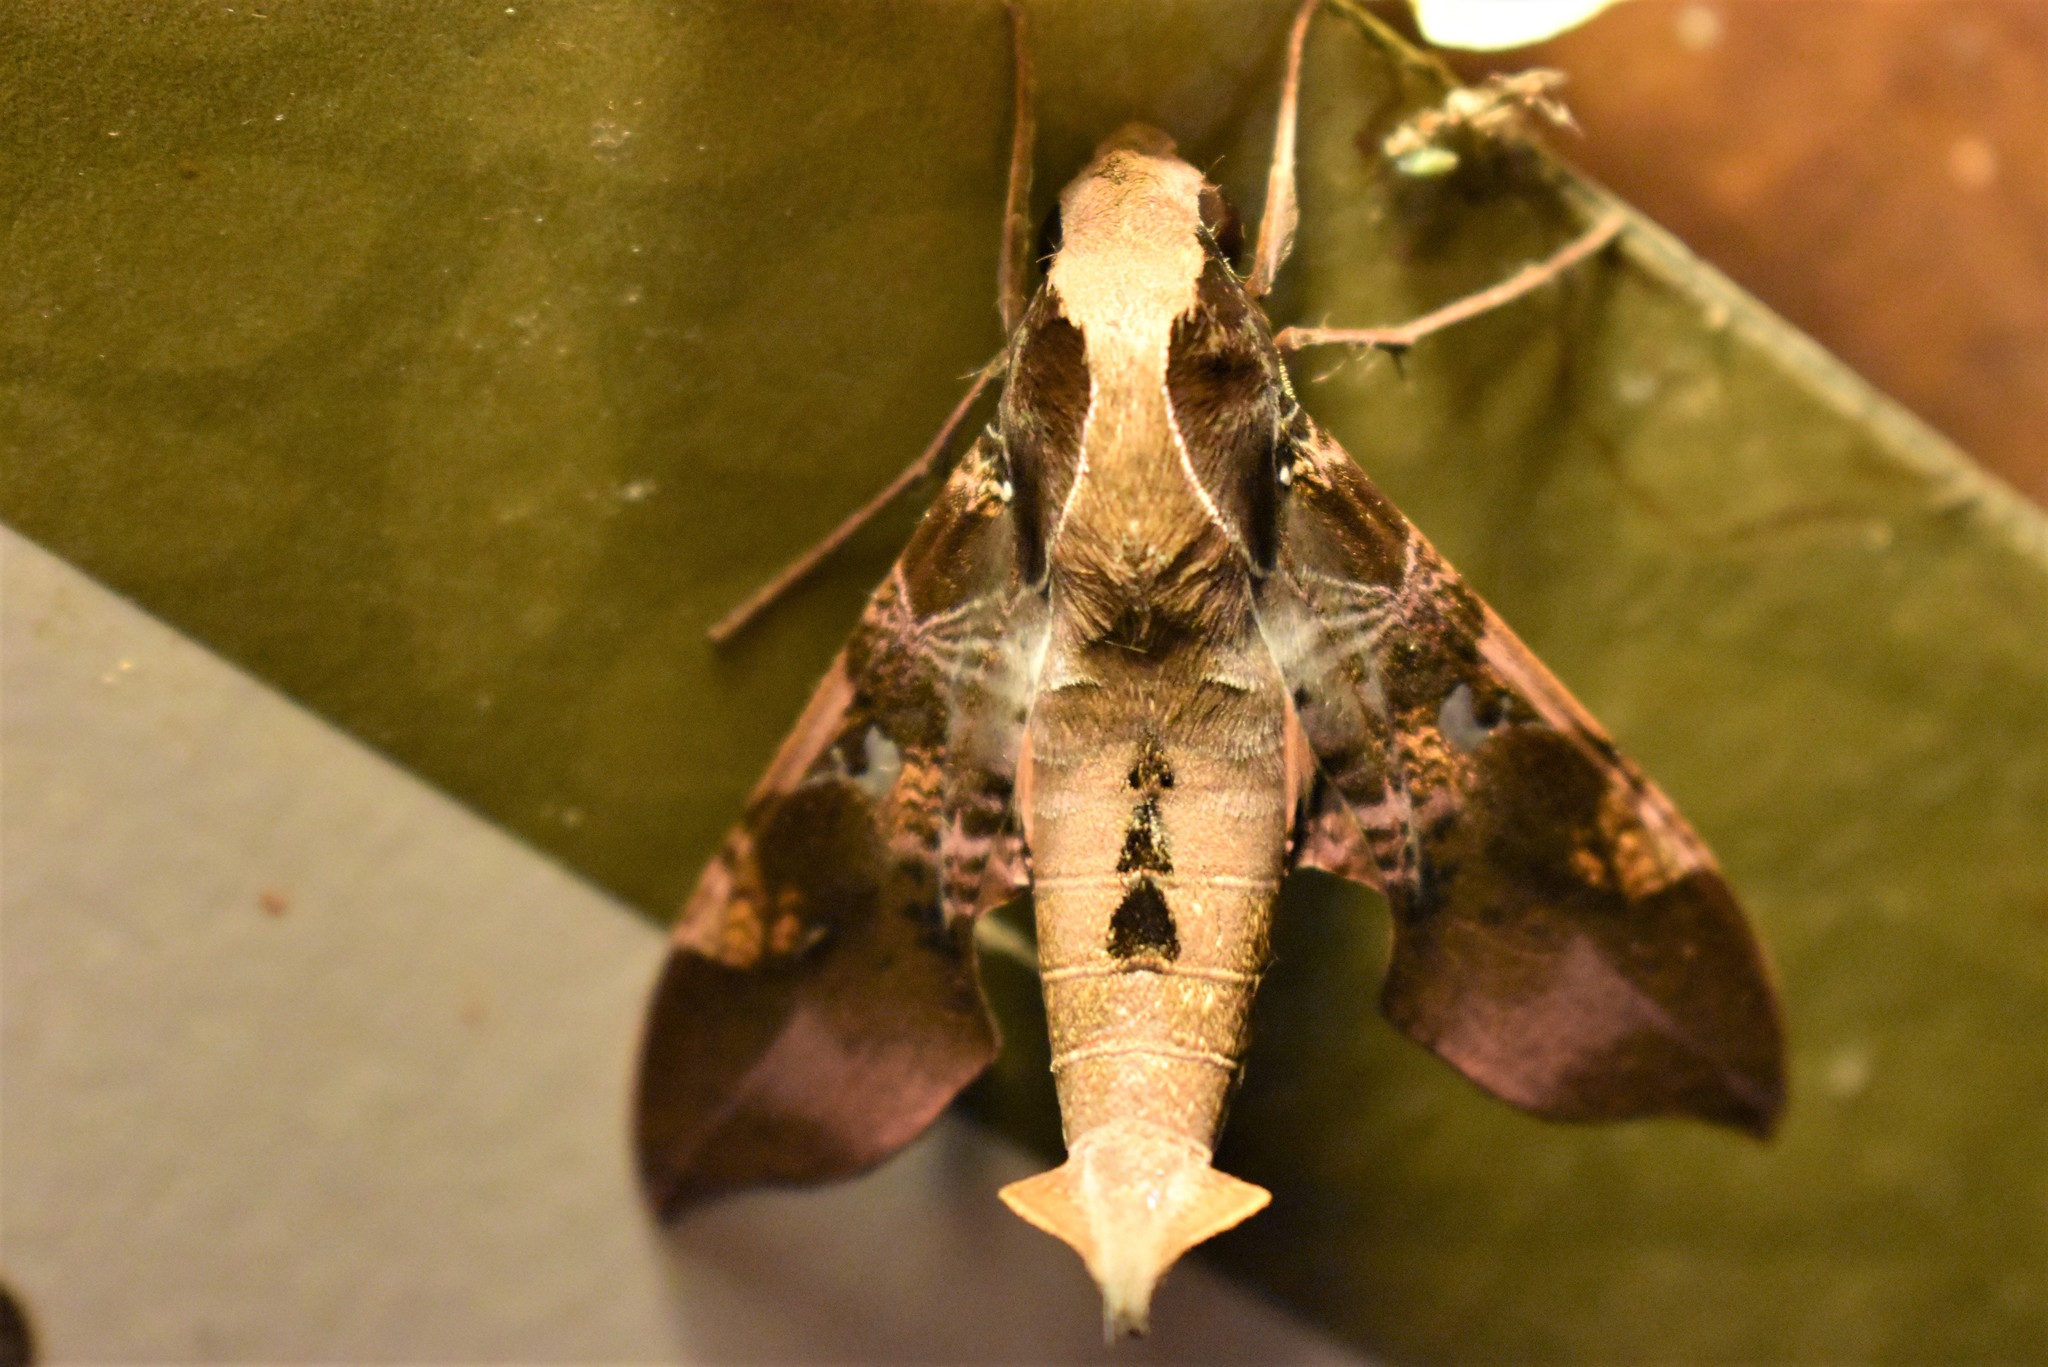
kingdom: Animalia
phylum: Arthropoda
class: Insecta
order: Lepidoptera
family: Sphingidae
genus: Callionima
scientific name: Callionima inuus
